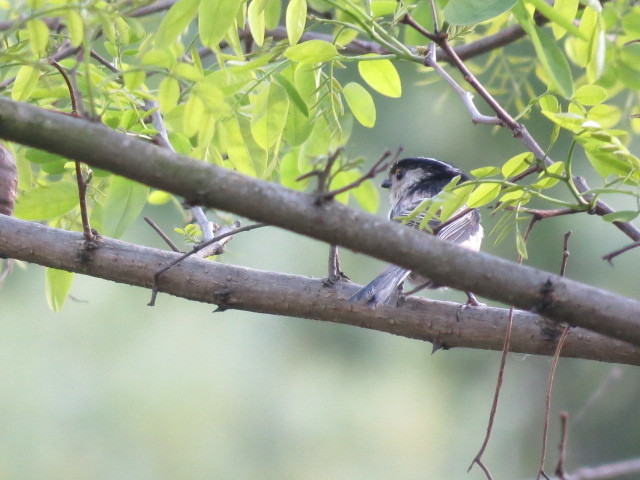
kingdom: Animalia
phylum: Chordata
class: Aves
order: Passeriformes
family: Aegithalidae
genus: Aegithalos
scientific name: Aegithalos caudatus
